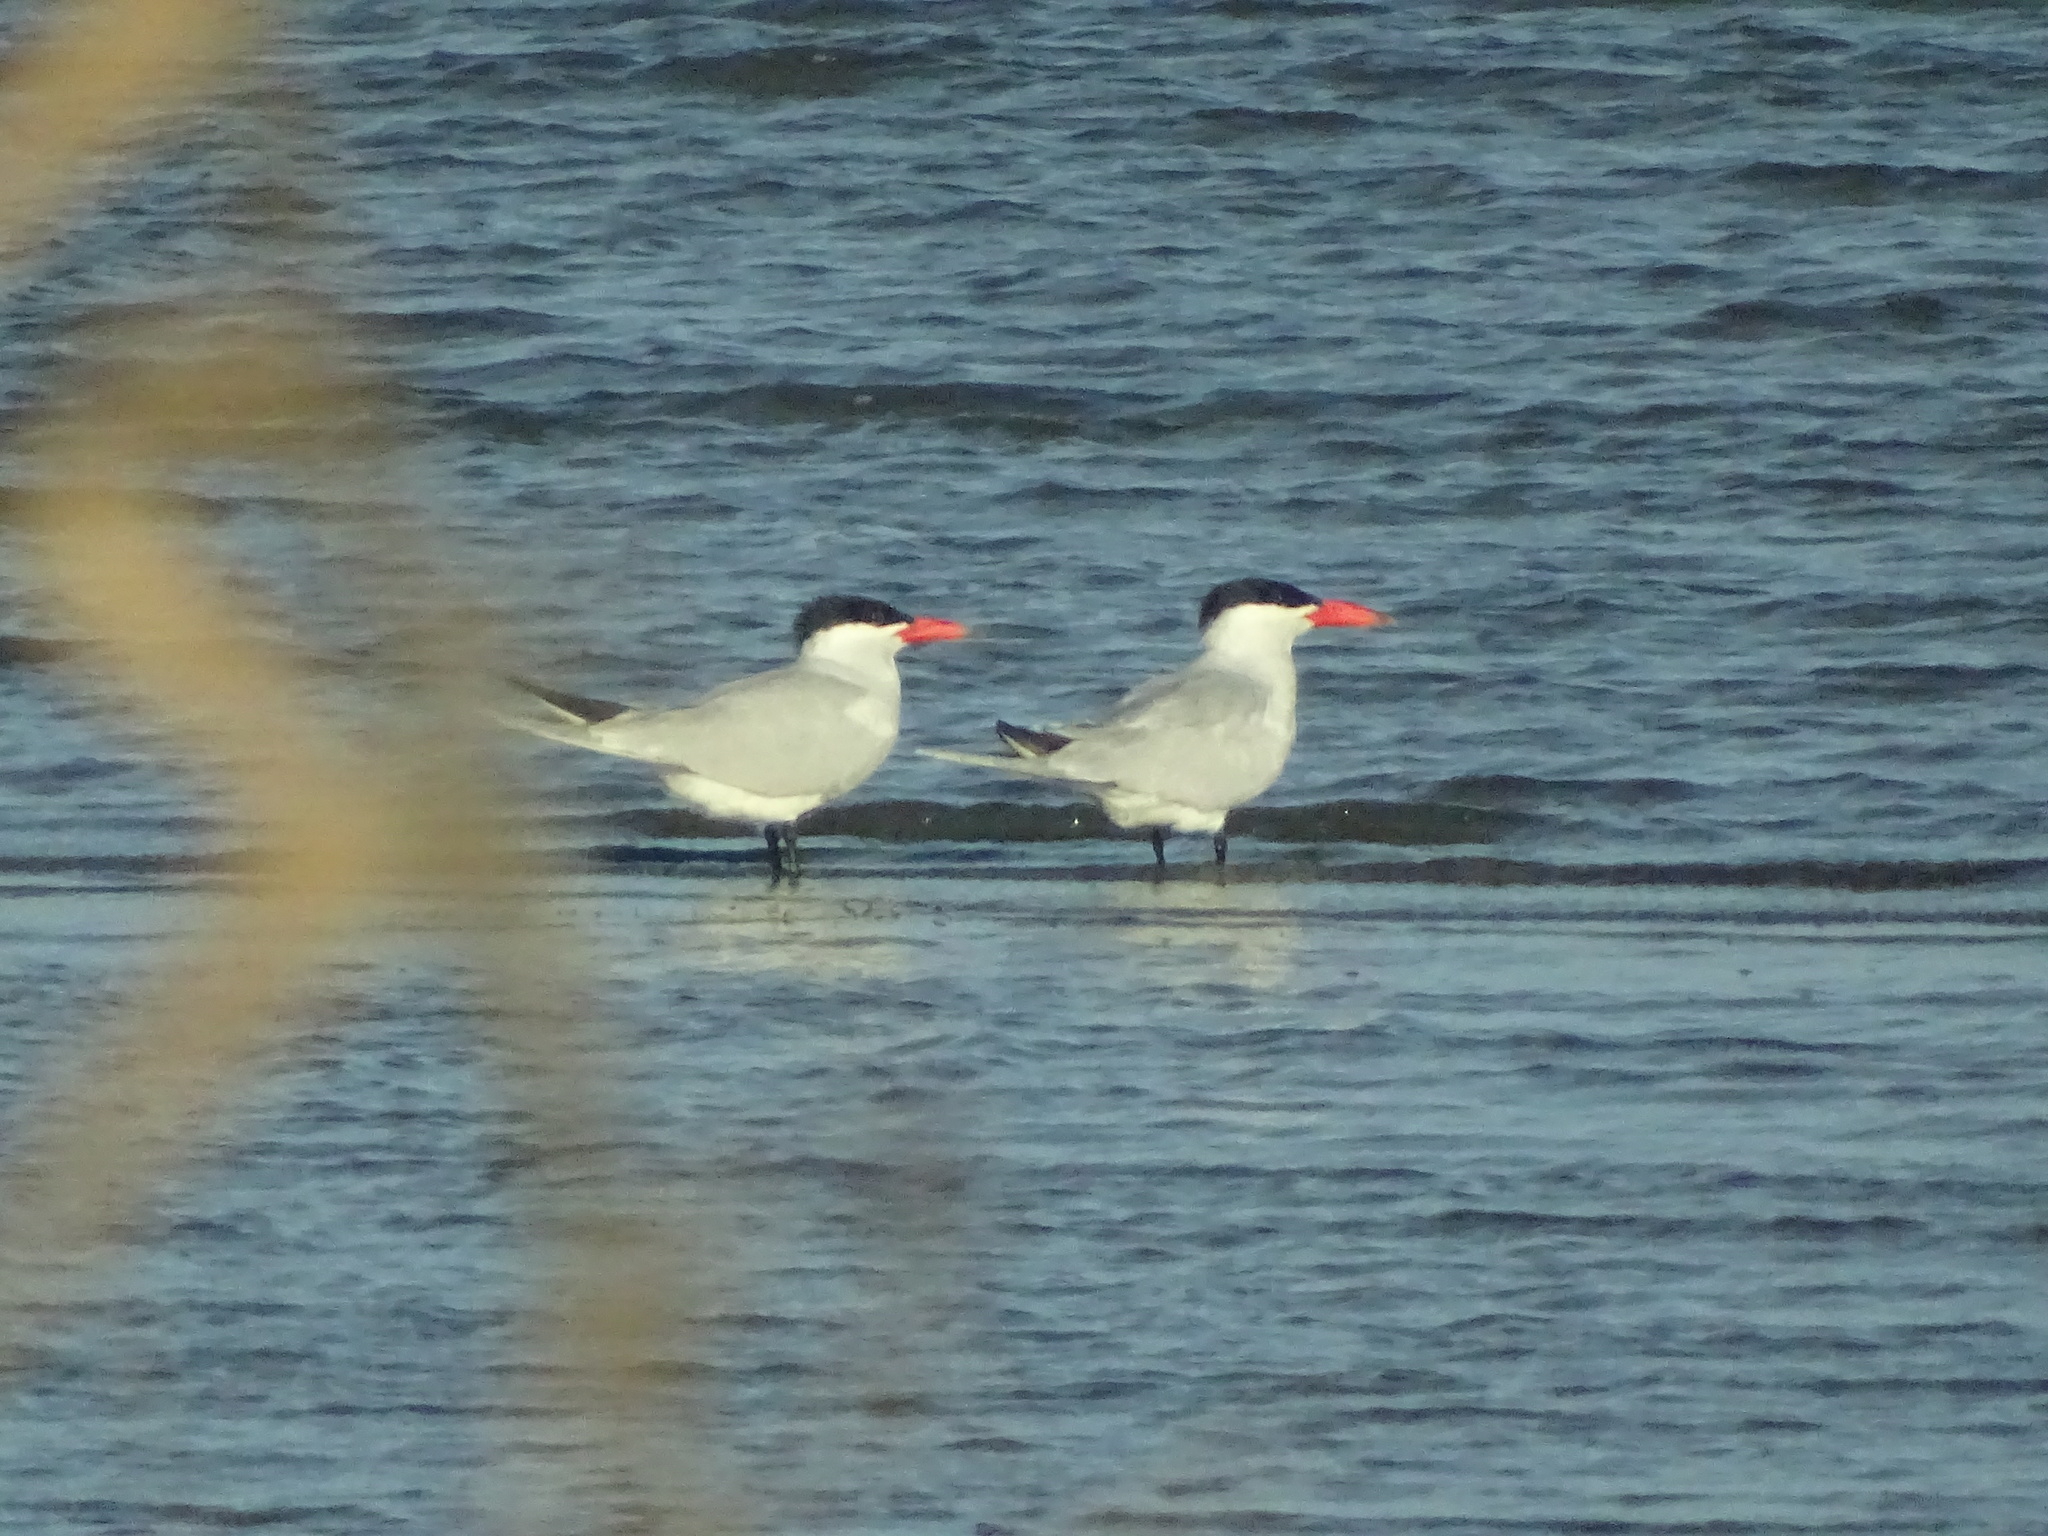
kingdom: Animalia
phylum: Chordata
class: Aves
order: Charadriiformes
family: Laridae
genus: Hydroprogne
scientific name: Hydroprogne caspia
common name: Caspian tern
